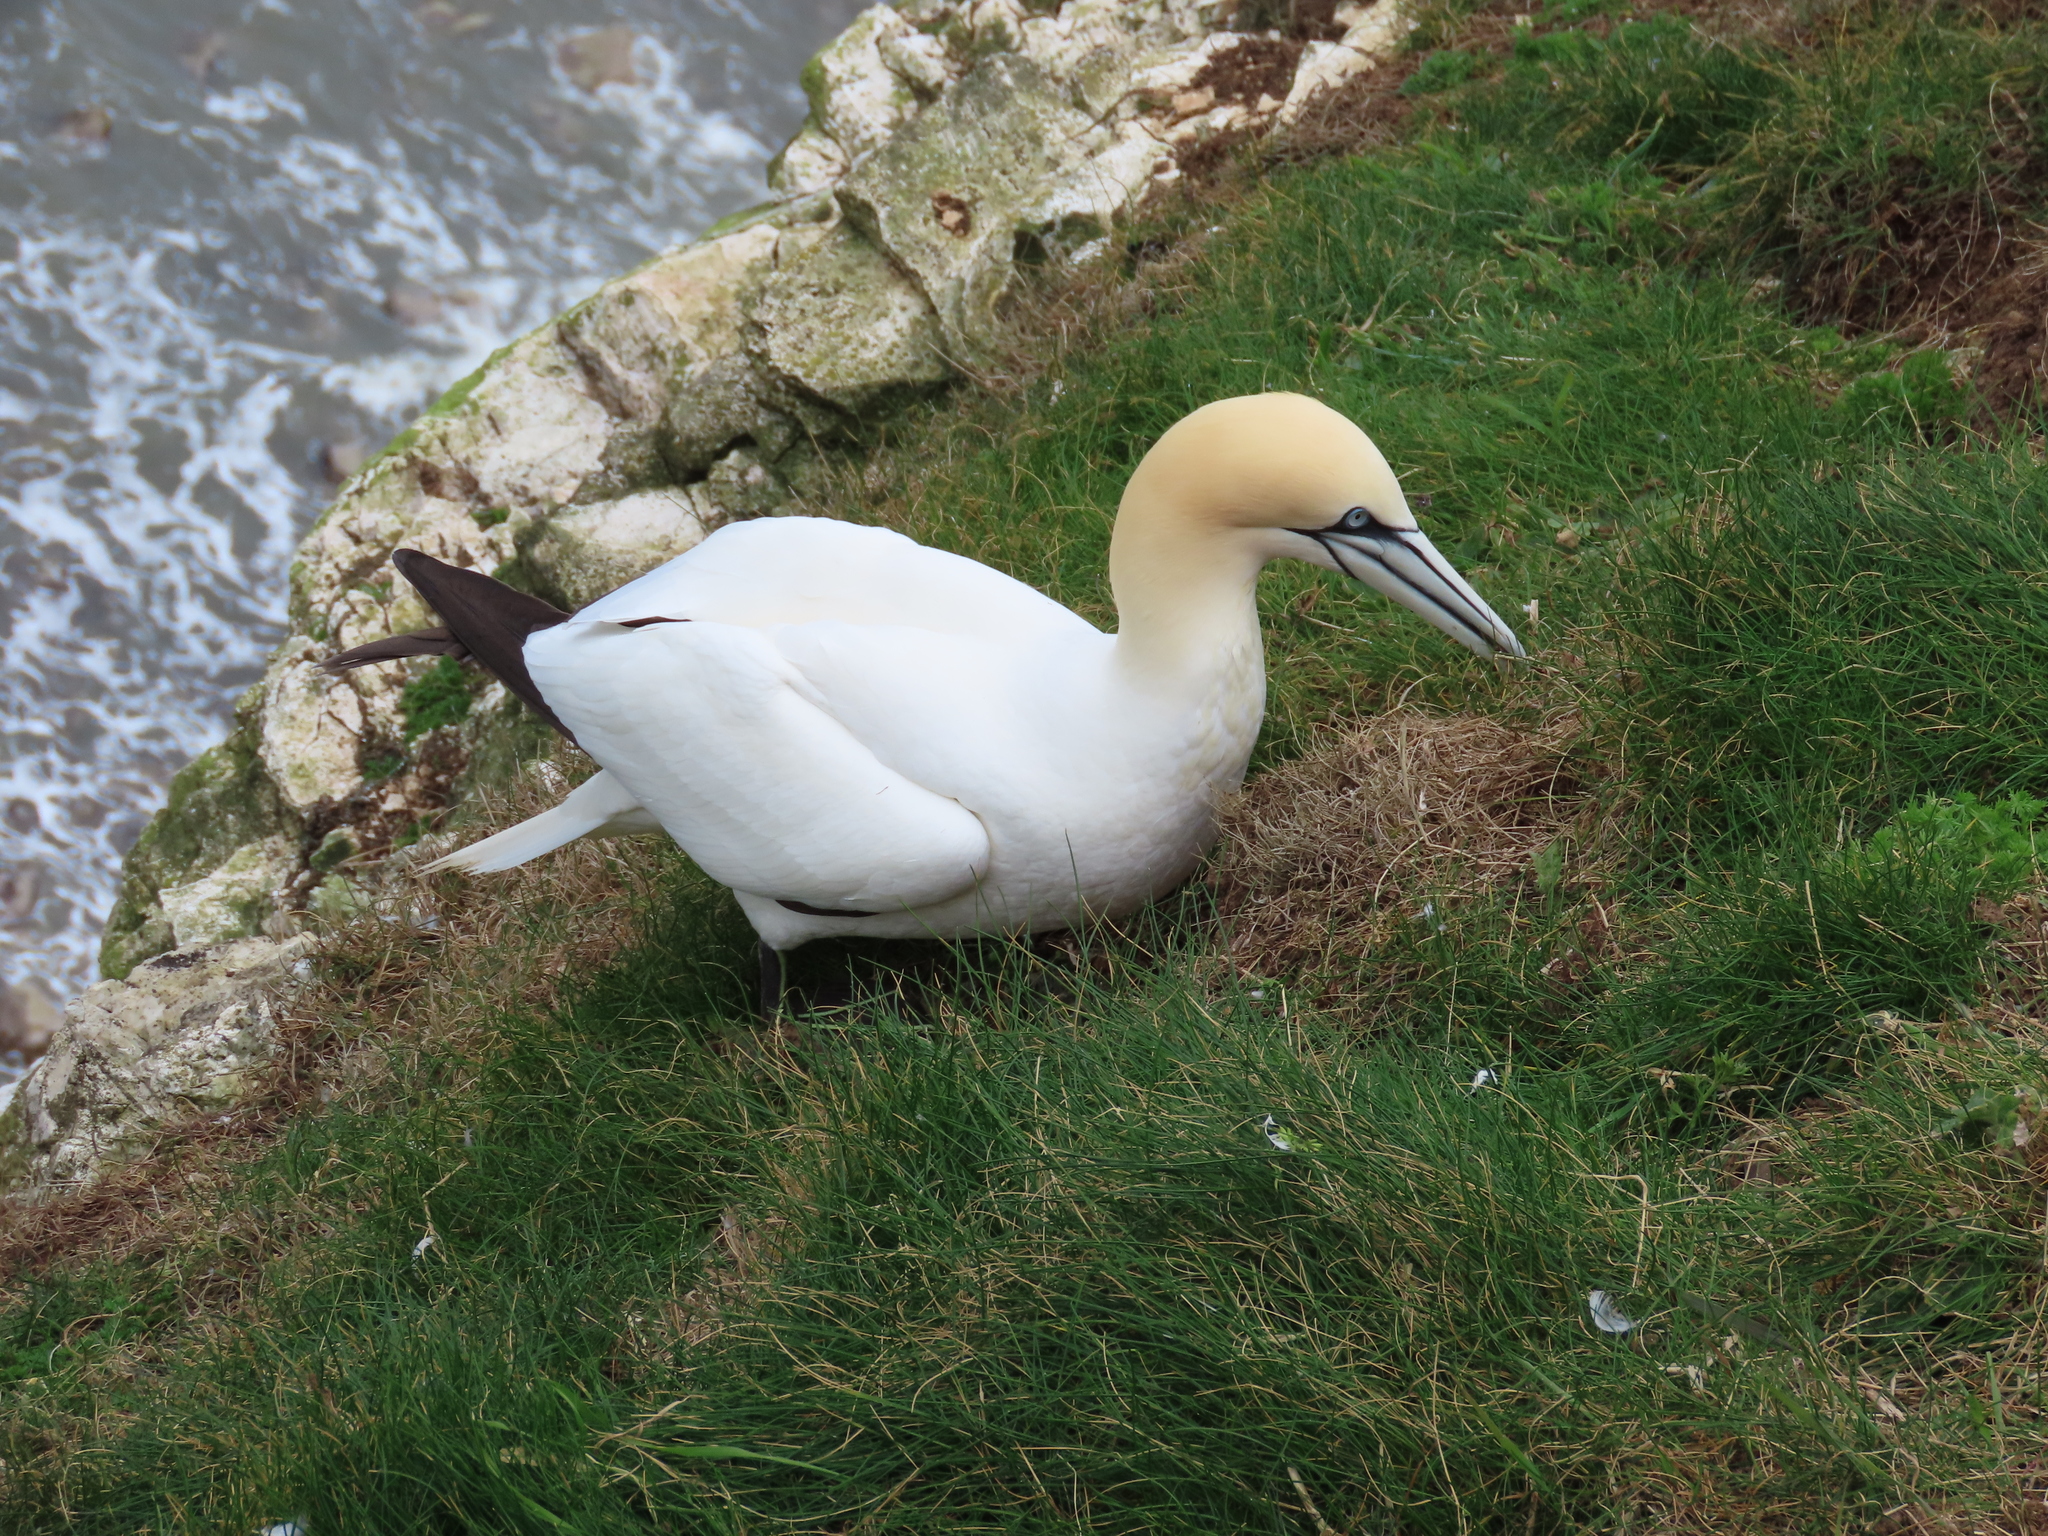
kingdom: Animalia
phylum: Chordata
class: Aves
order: Suliformes
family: Sulidae
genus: Morus
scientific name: Morus bassanus
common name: Northern gannet
